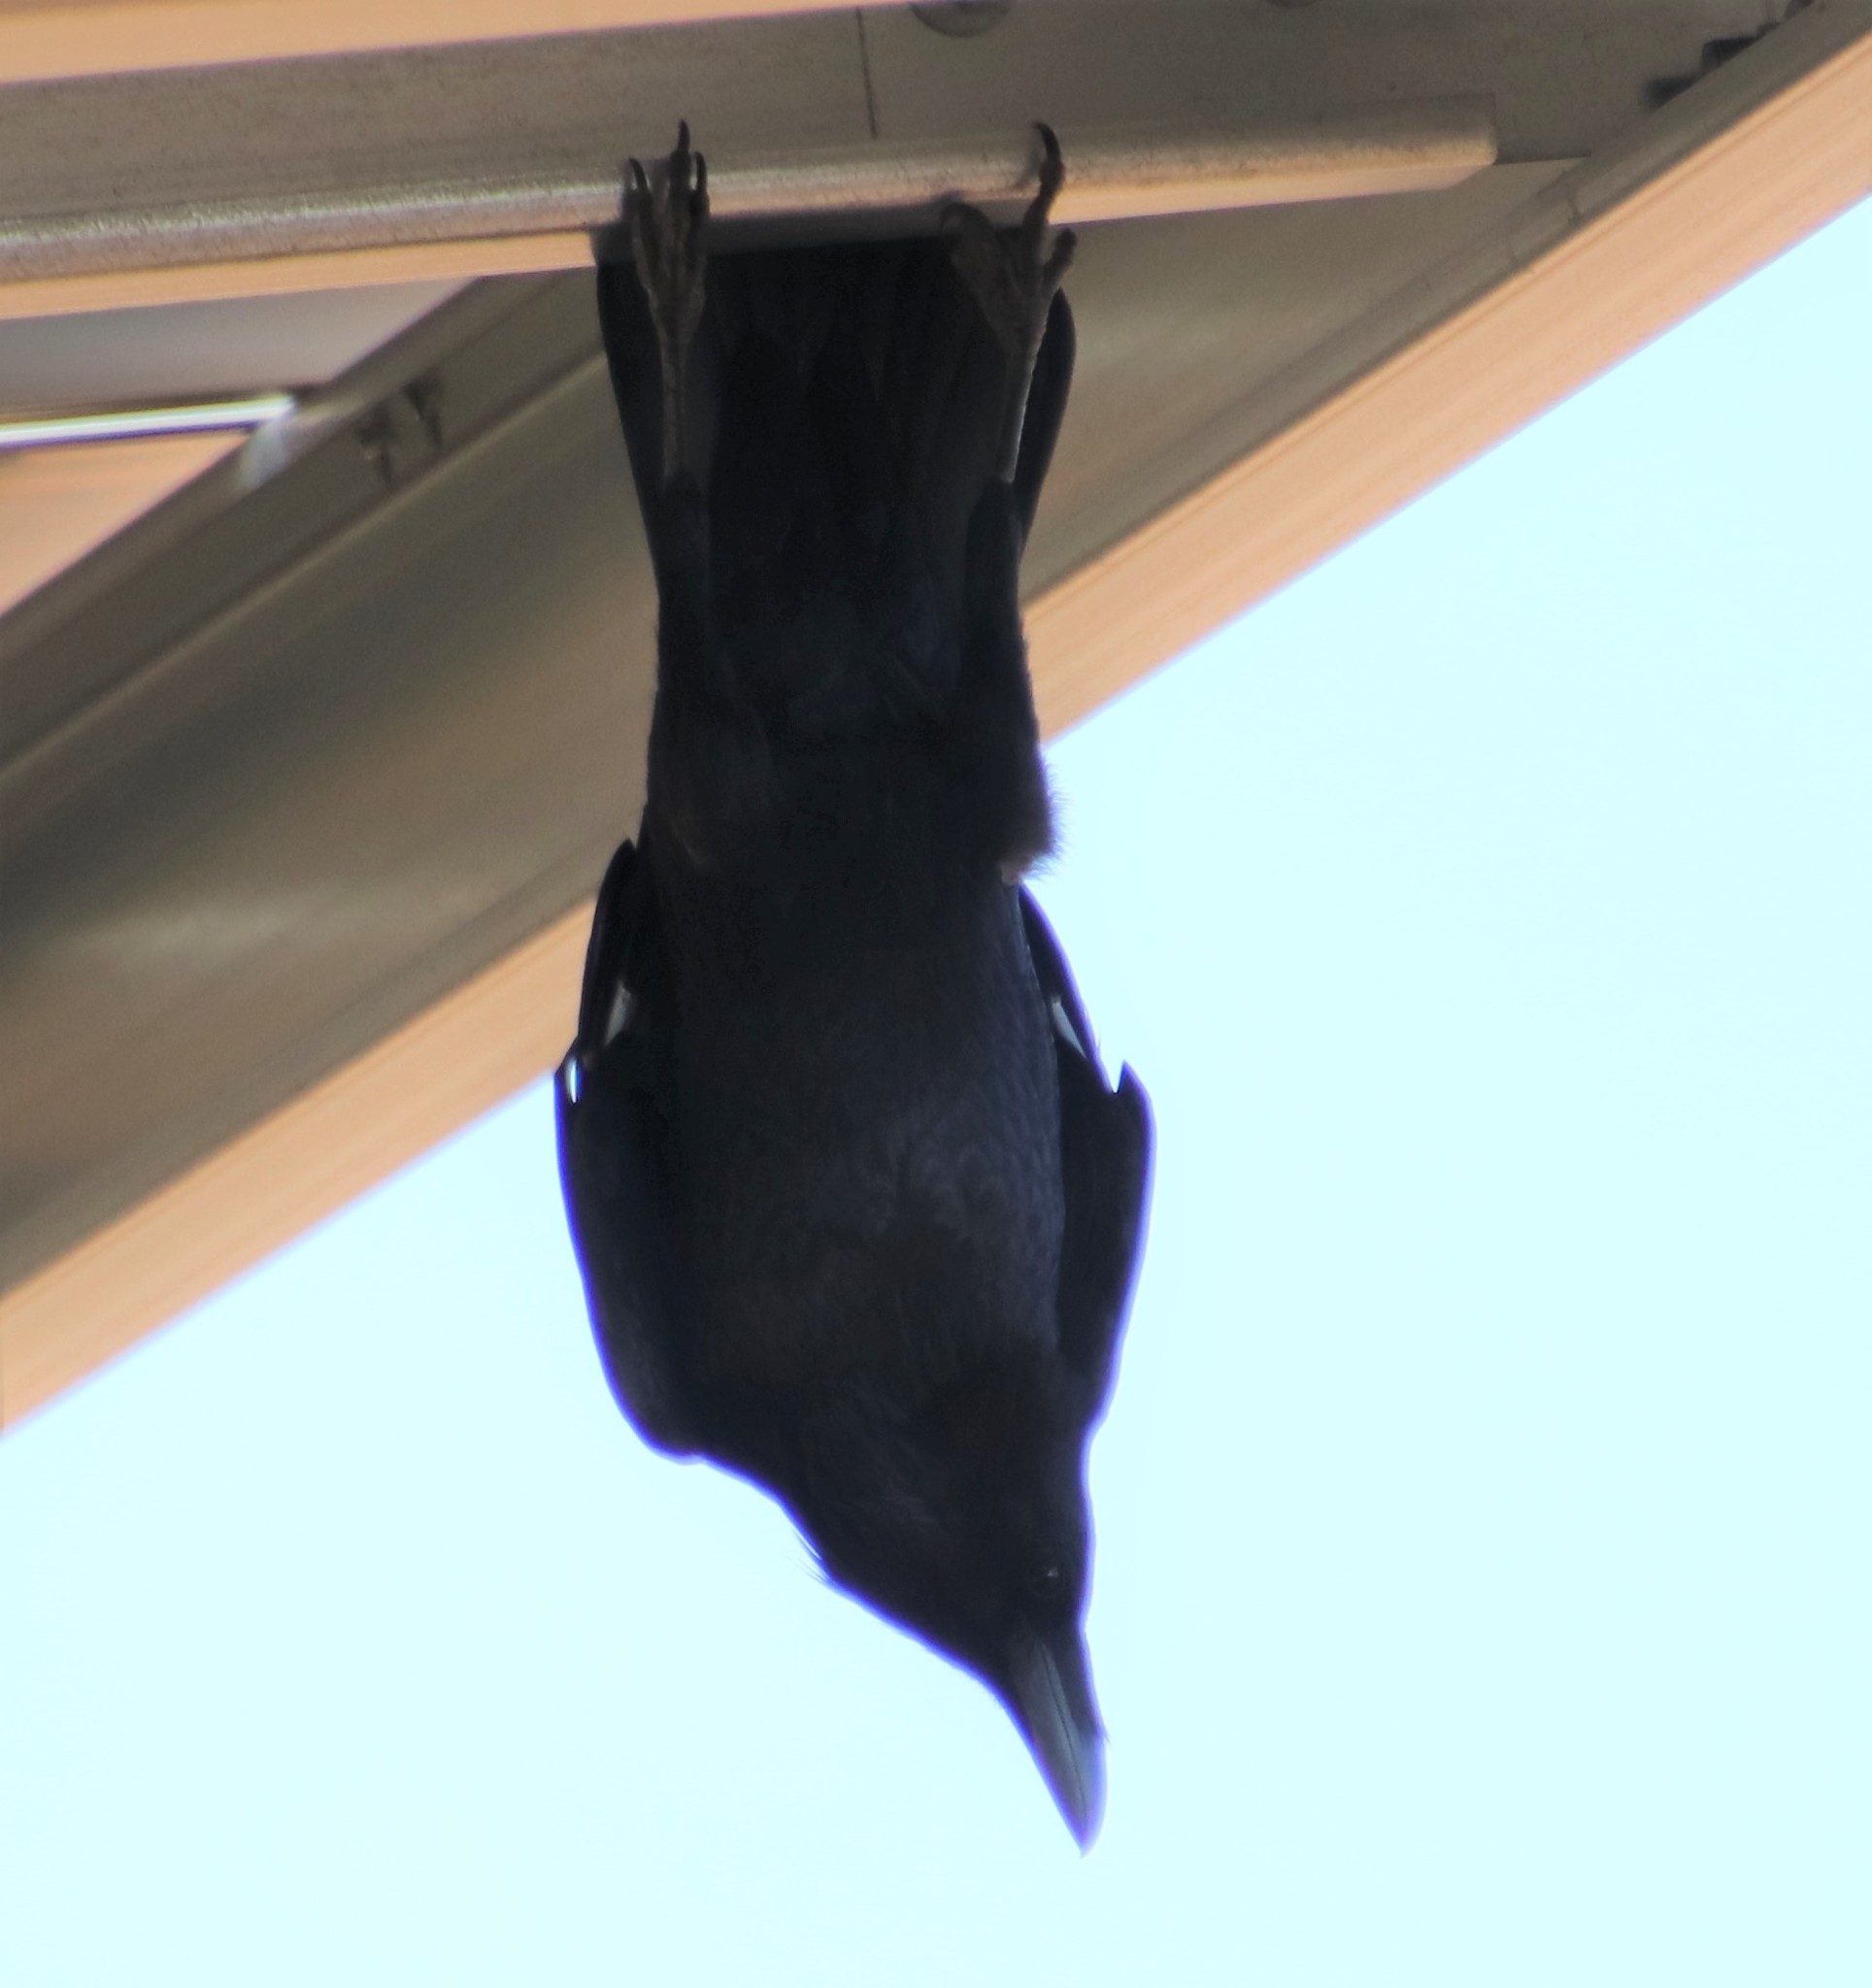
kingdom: Animalia
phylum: Chordata
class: Aves
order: Passeriformes
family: Corvidae
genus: Corvus
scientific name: Corvus corax
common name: Common raven
